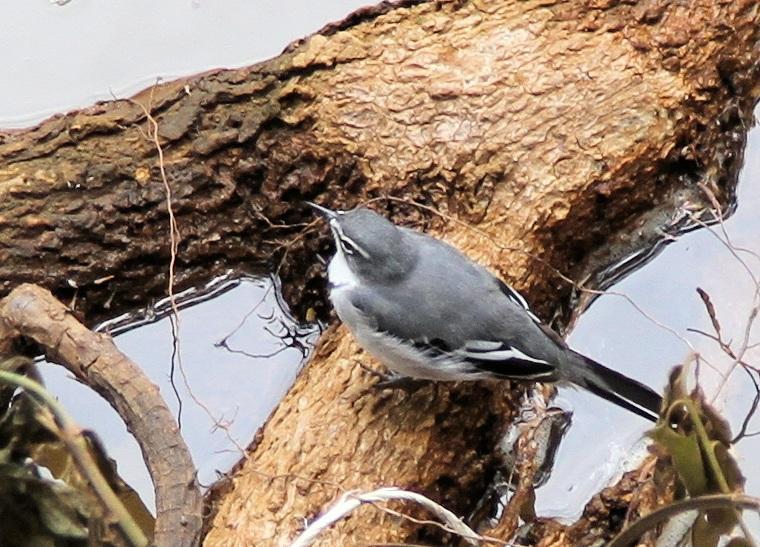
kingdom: Animalia
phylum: Chordata
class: Aves
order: Passeriformes
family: Motacillidae
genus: Motacilla
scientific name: Motacilla clara
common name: Mountain wagtail
